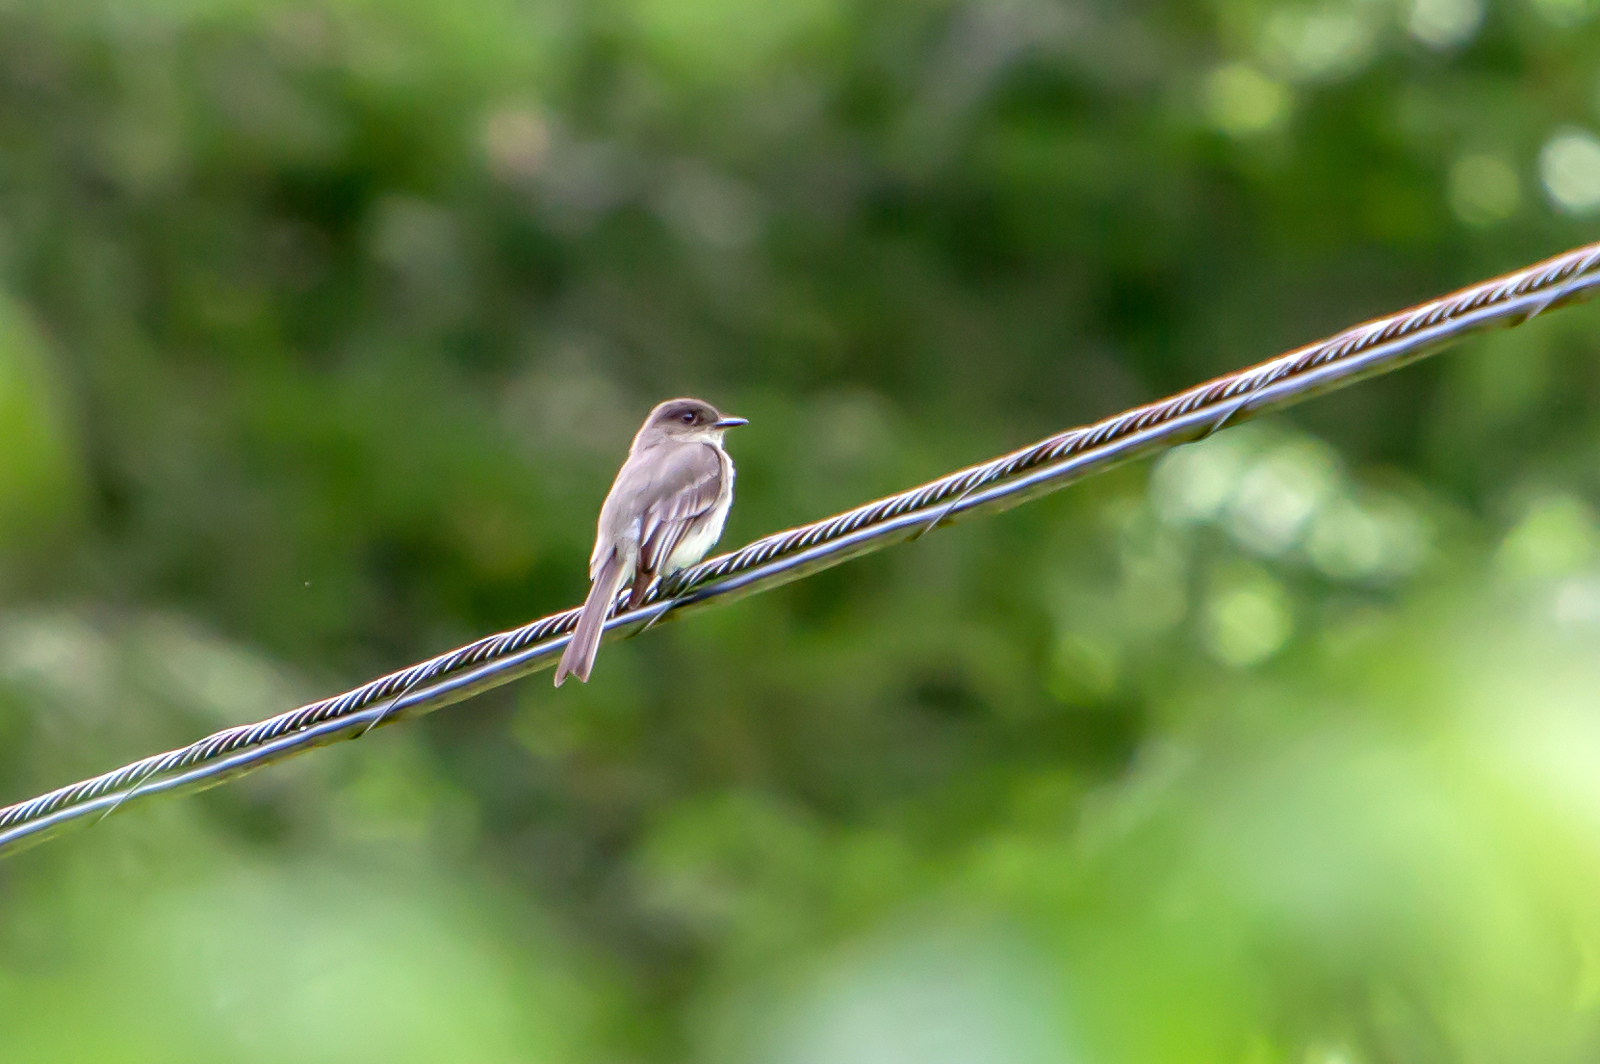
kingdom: Animalia
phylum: Chordata
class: Aves
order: Passeriformes
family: Tyrannidae
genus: Sayornis
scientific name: Sayornis phoebe
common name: Eastern phoebe
